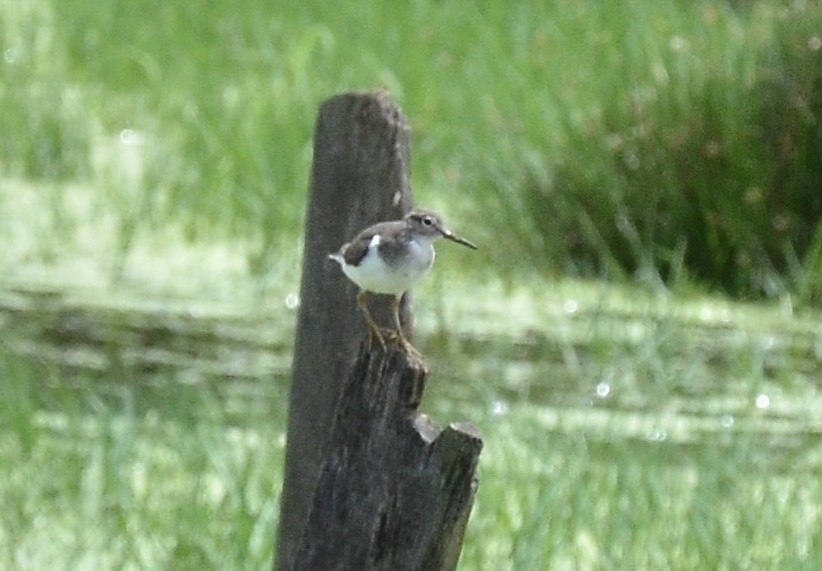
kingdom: Animalia
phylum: Chordata
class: Aves
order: Charadriiformes
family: Scolopacidae
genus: Actitis
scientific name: Actitis hypoleucos
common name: Common sandpiper
